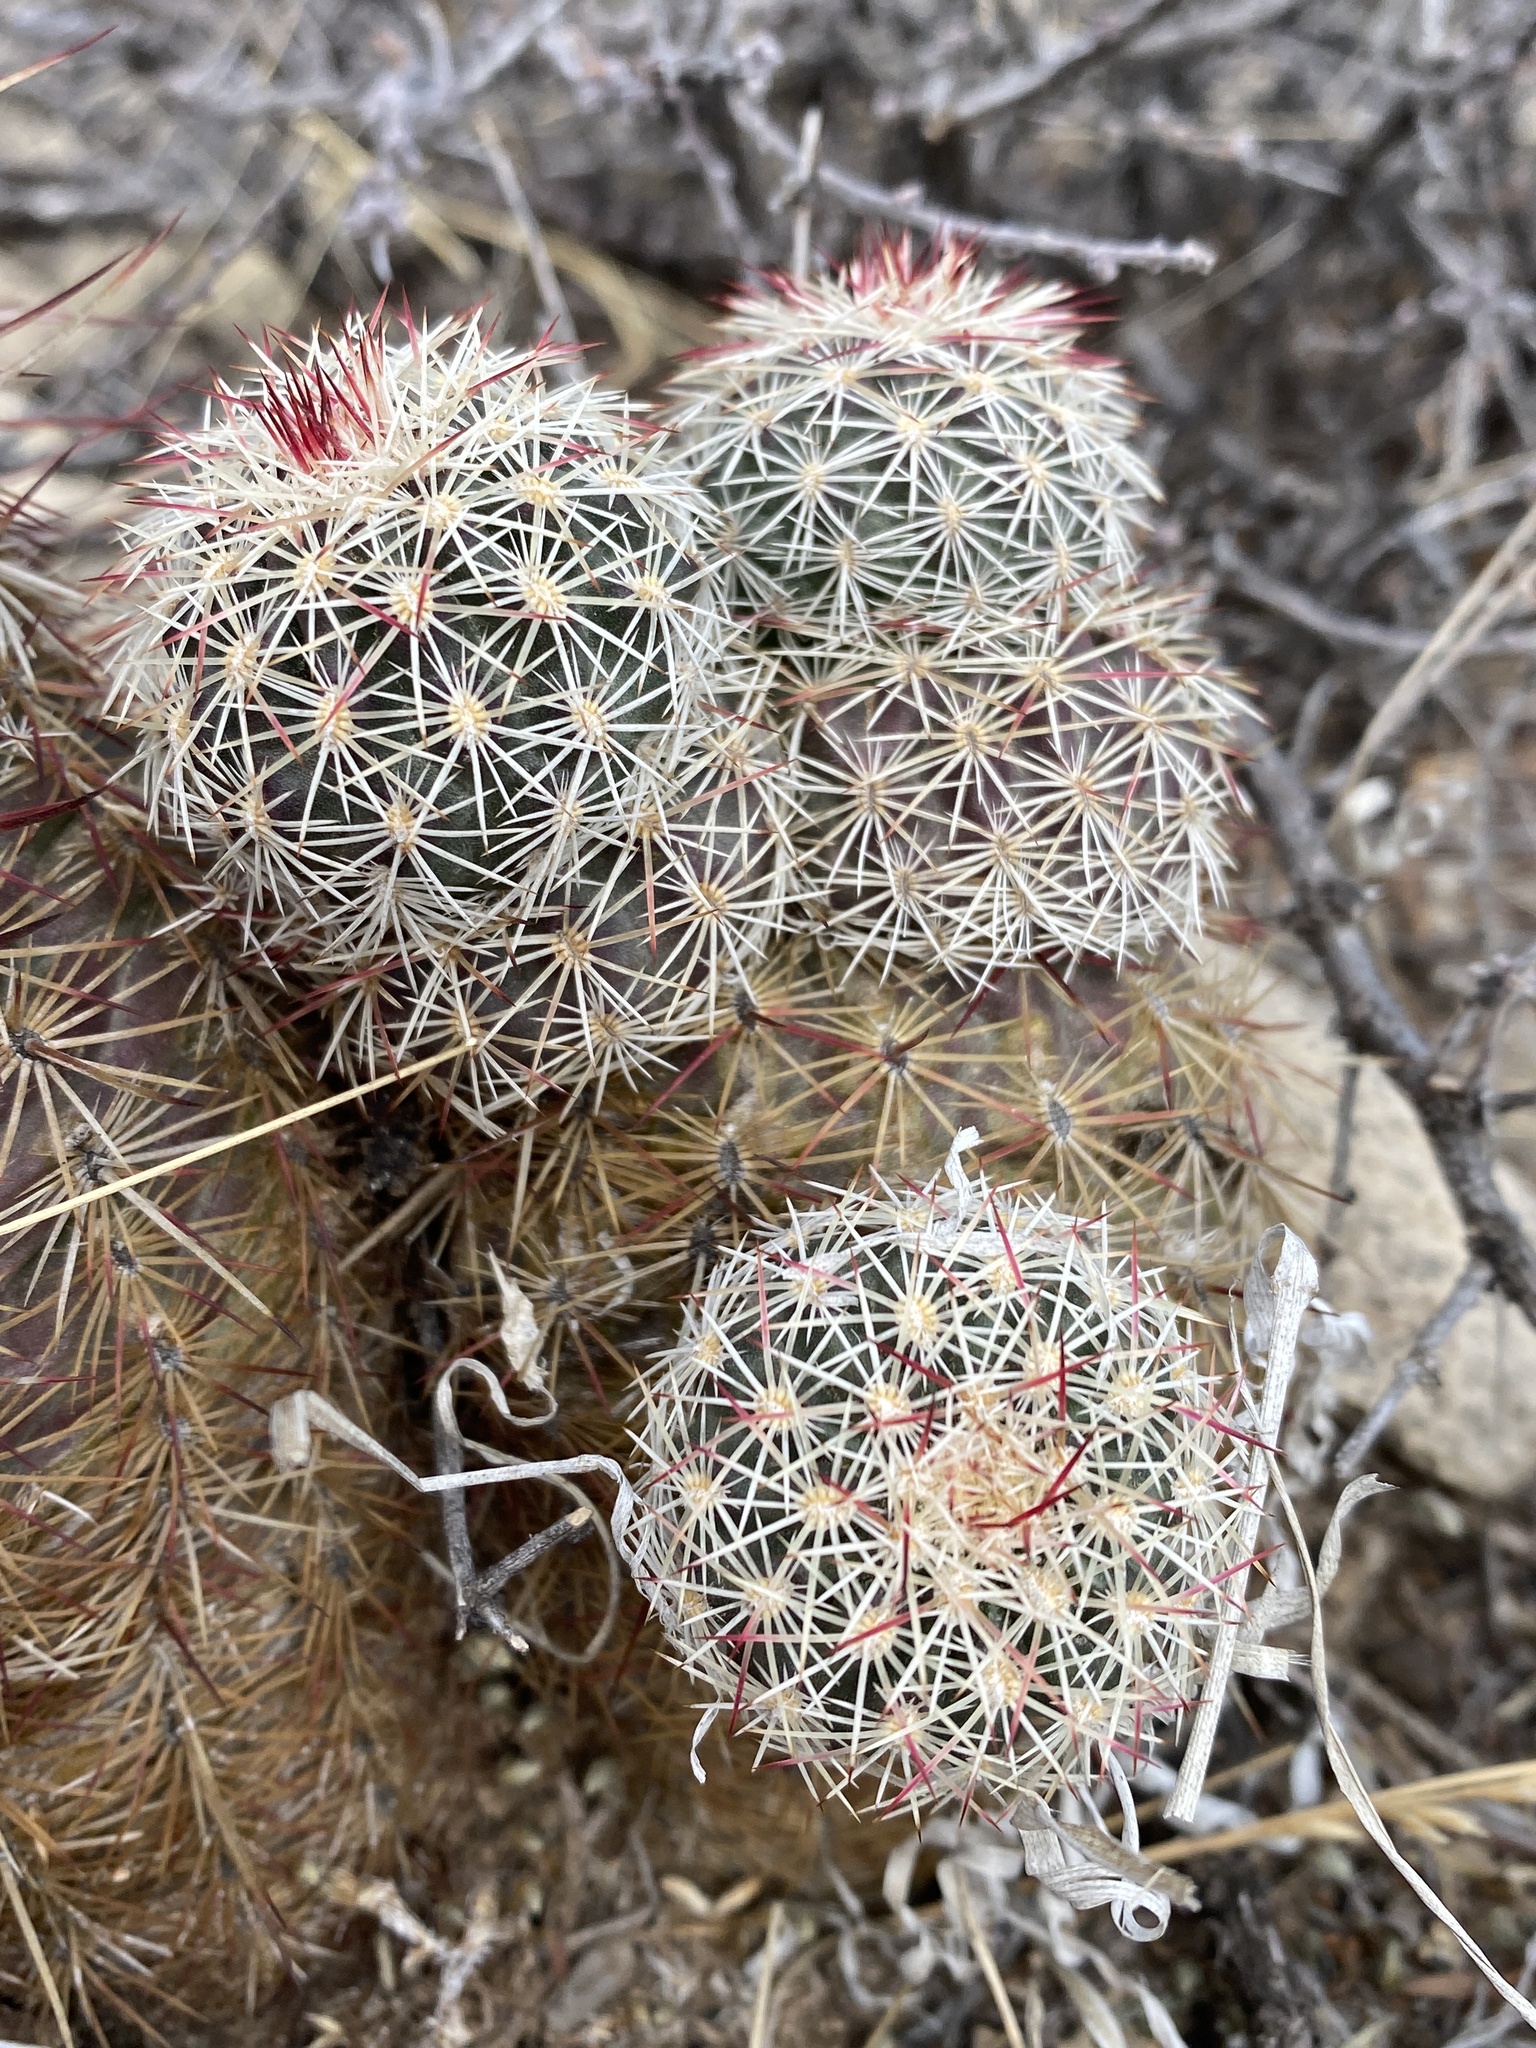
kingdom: Plantae
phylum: Tracheophyta
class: Magnoliopsida
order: Caryophyllales
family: Cactaceae
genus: Echinocereus
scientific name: Echinocereus viridiflorus
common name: Nylon hedgehog cactus
